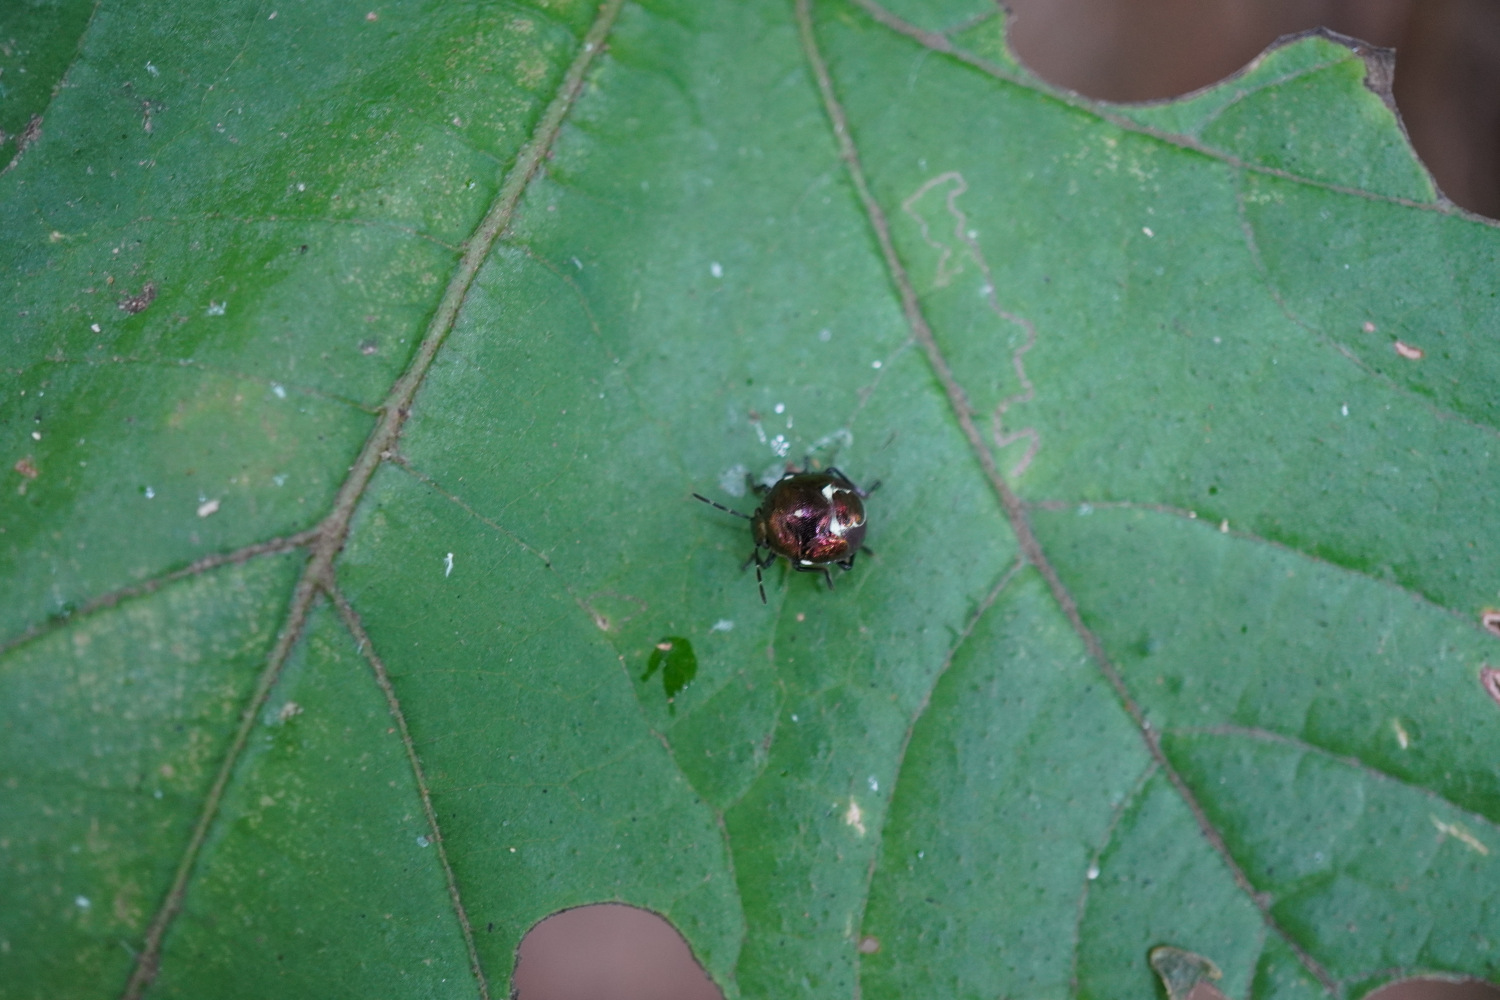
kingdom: Animalia
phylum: Arthropoda
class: Insecta
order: Hemiptera
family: Pentatomidae
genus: Menida
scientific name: Menida violacea
